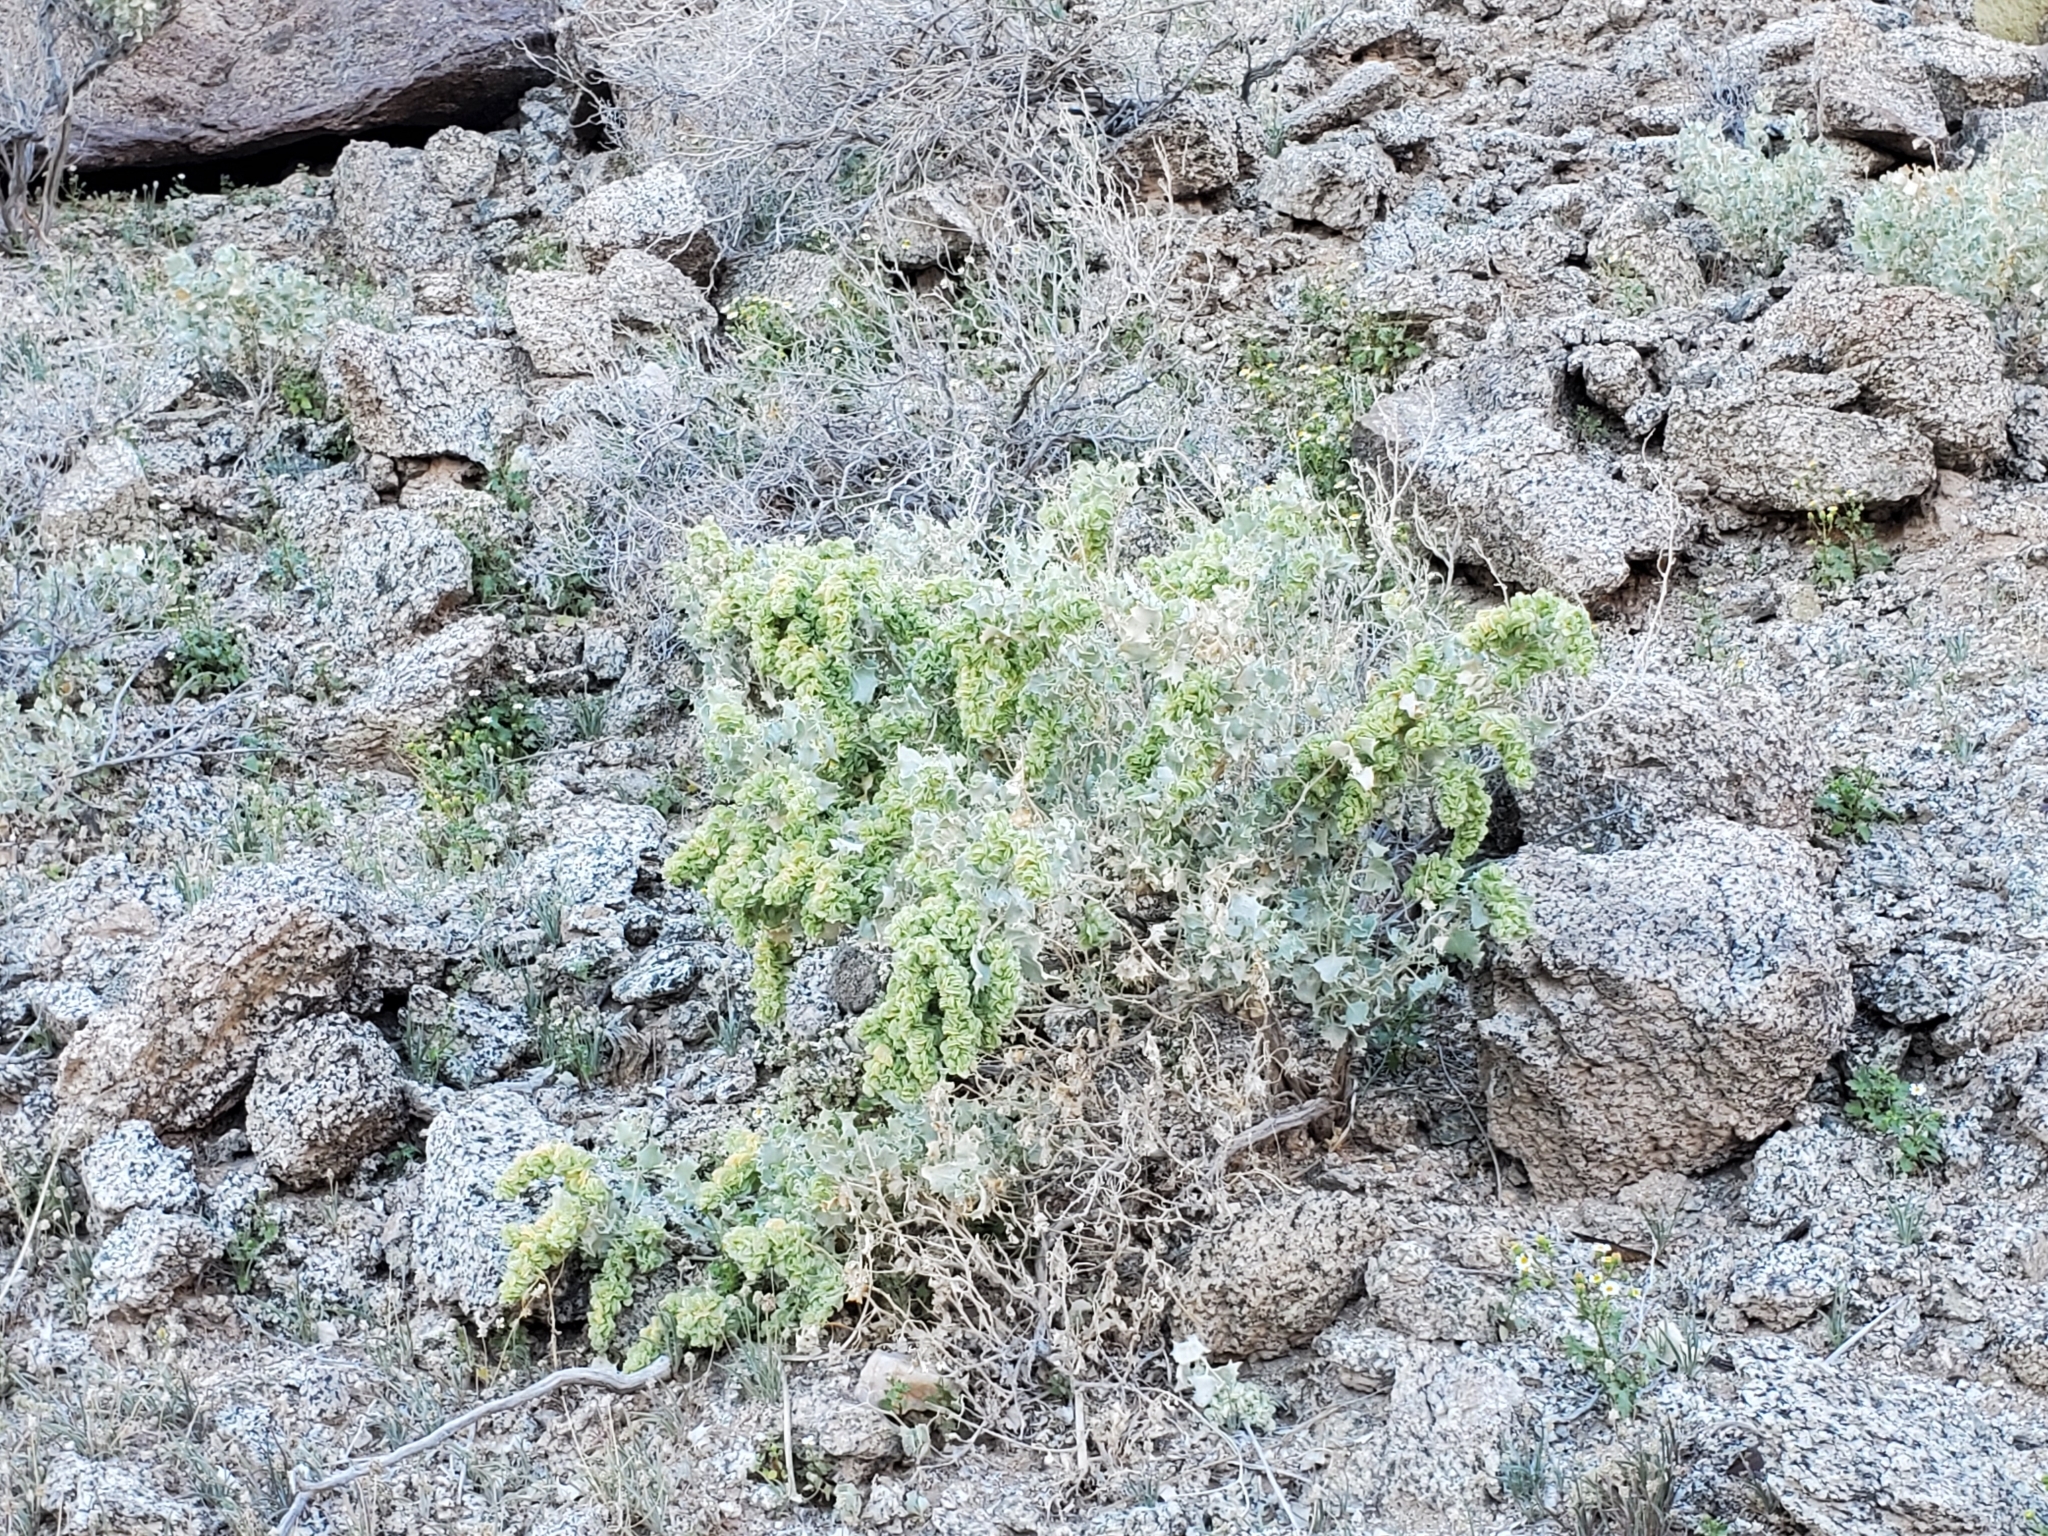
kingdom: Plantae
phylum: Tracheophyta
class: Magnoliopsida
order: Caryophyllales
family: Amaranthaceae
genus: Atriplex
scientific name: Atriplex hymenelytra
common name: Desert-holly
